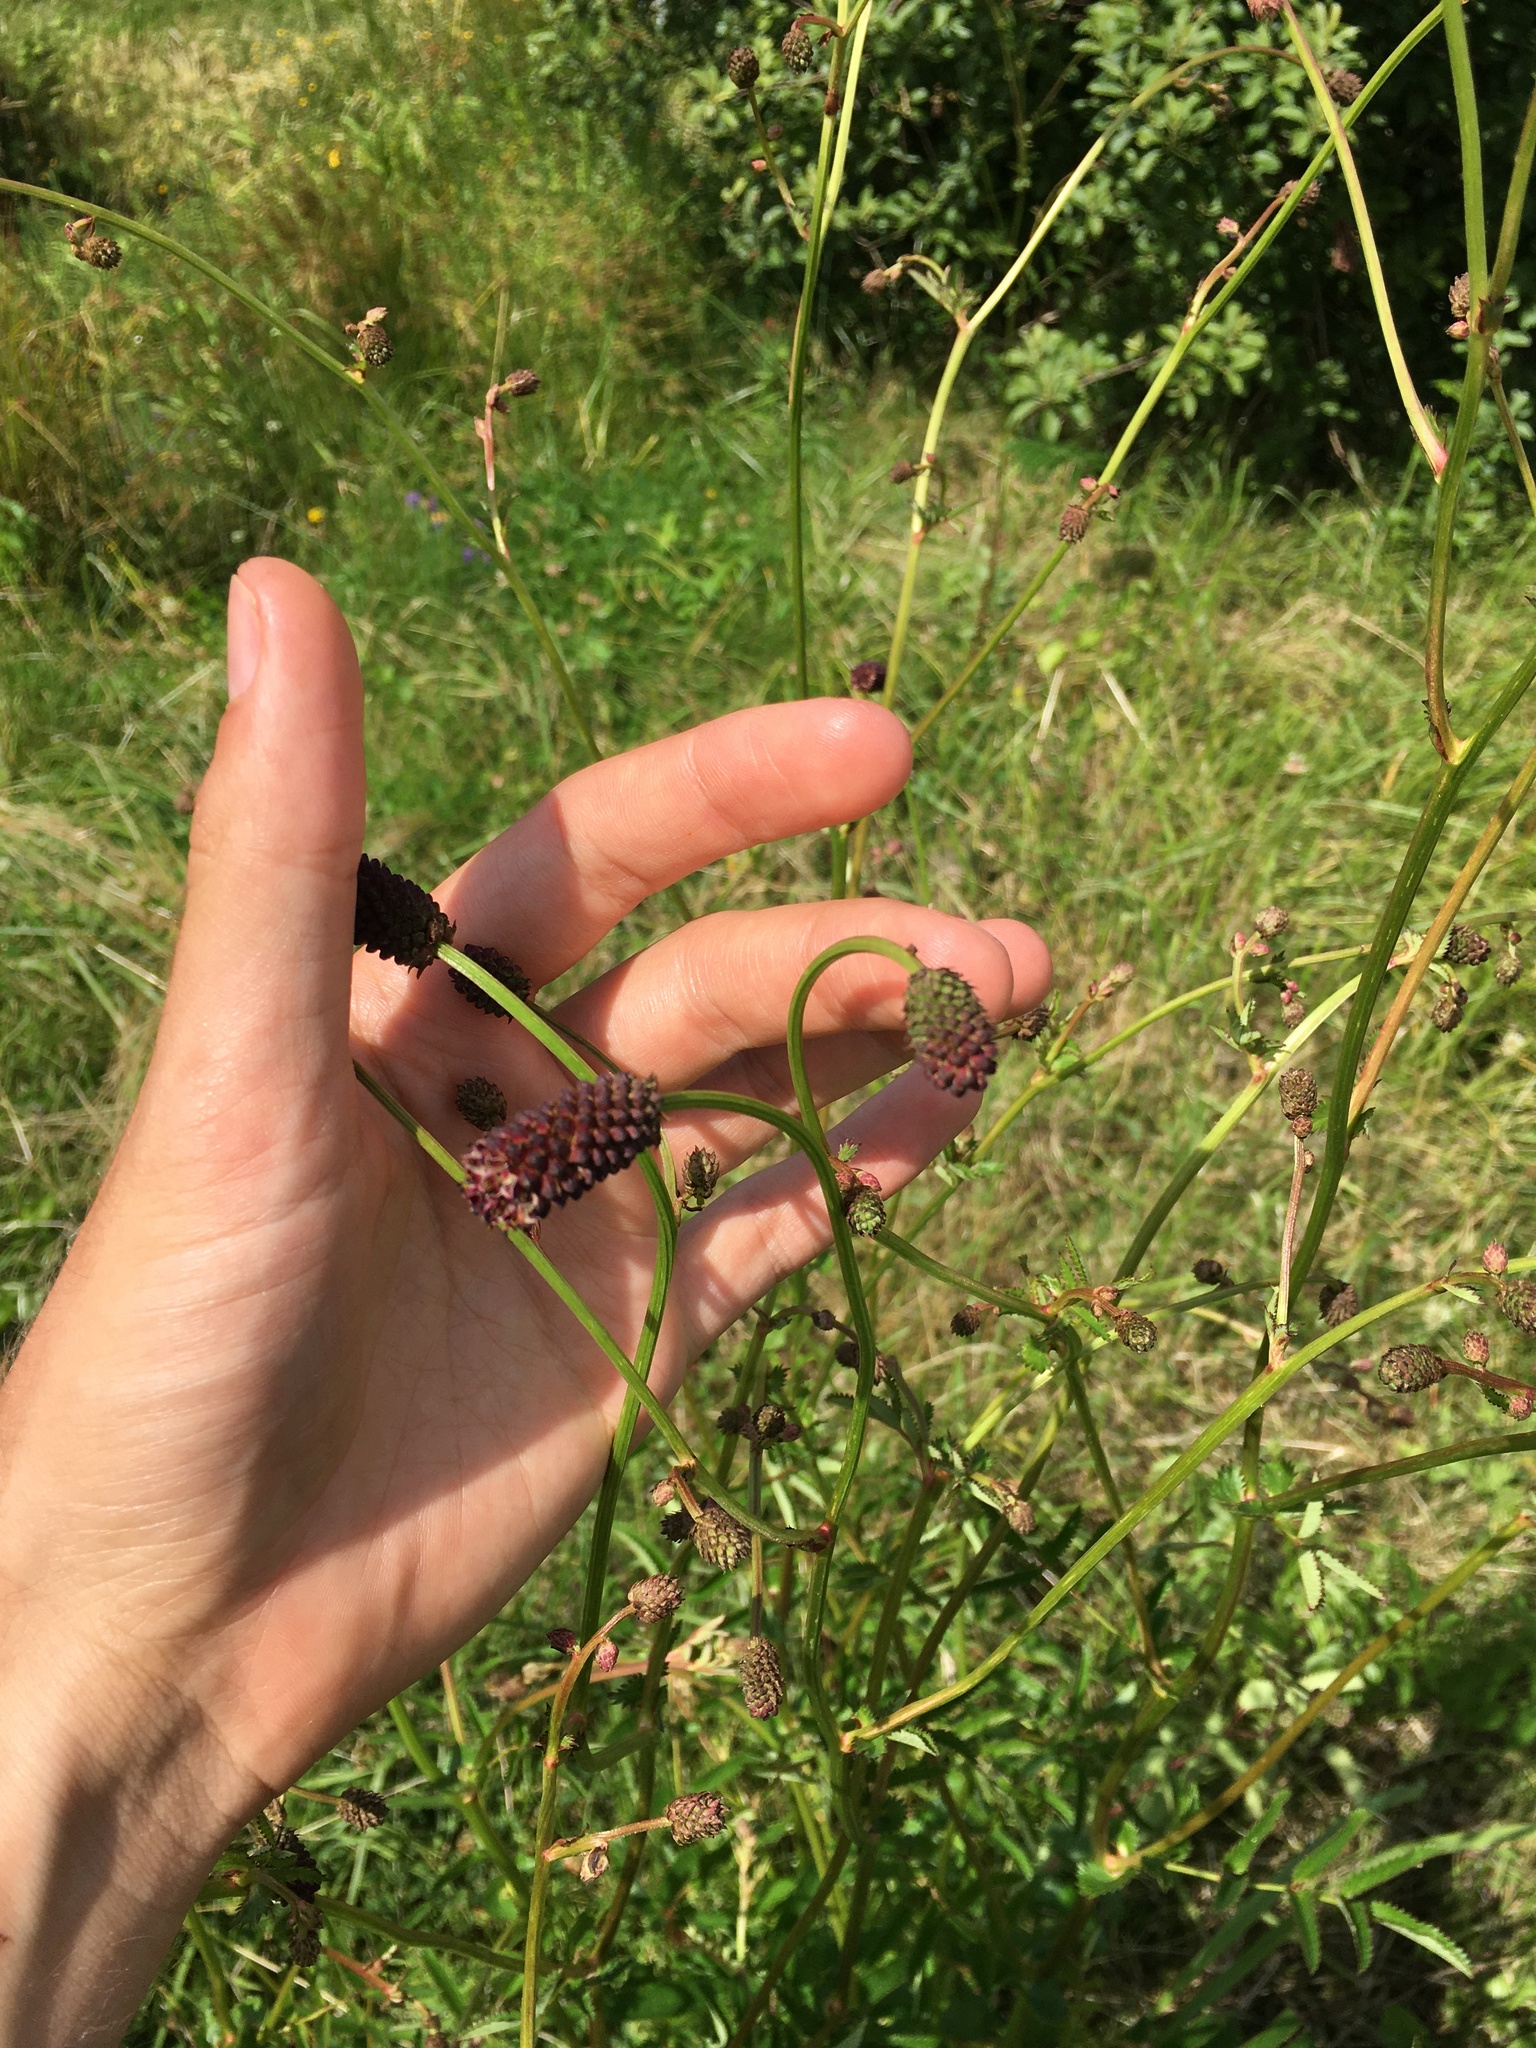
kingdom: Plantae
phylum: Tracheophyta
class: Magnoliopsida
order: Rosales
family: Rosaceae
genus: Sanguisorba
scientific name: Sanguisorba officinalis
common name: Great burnet
